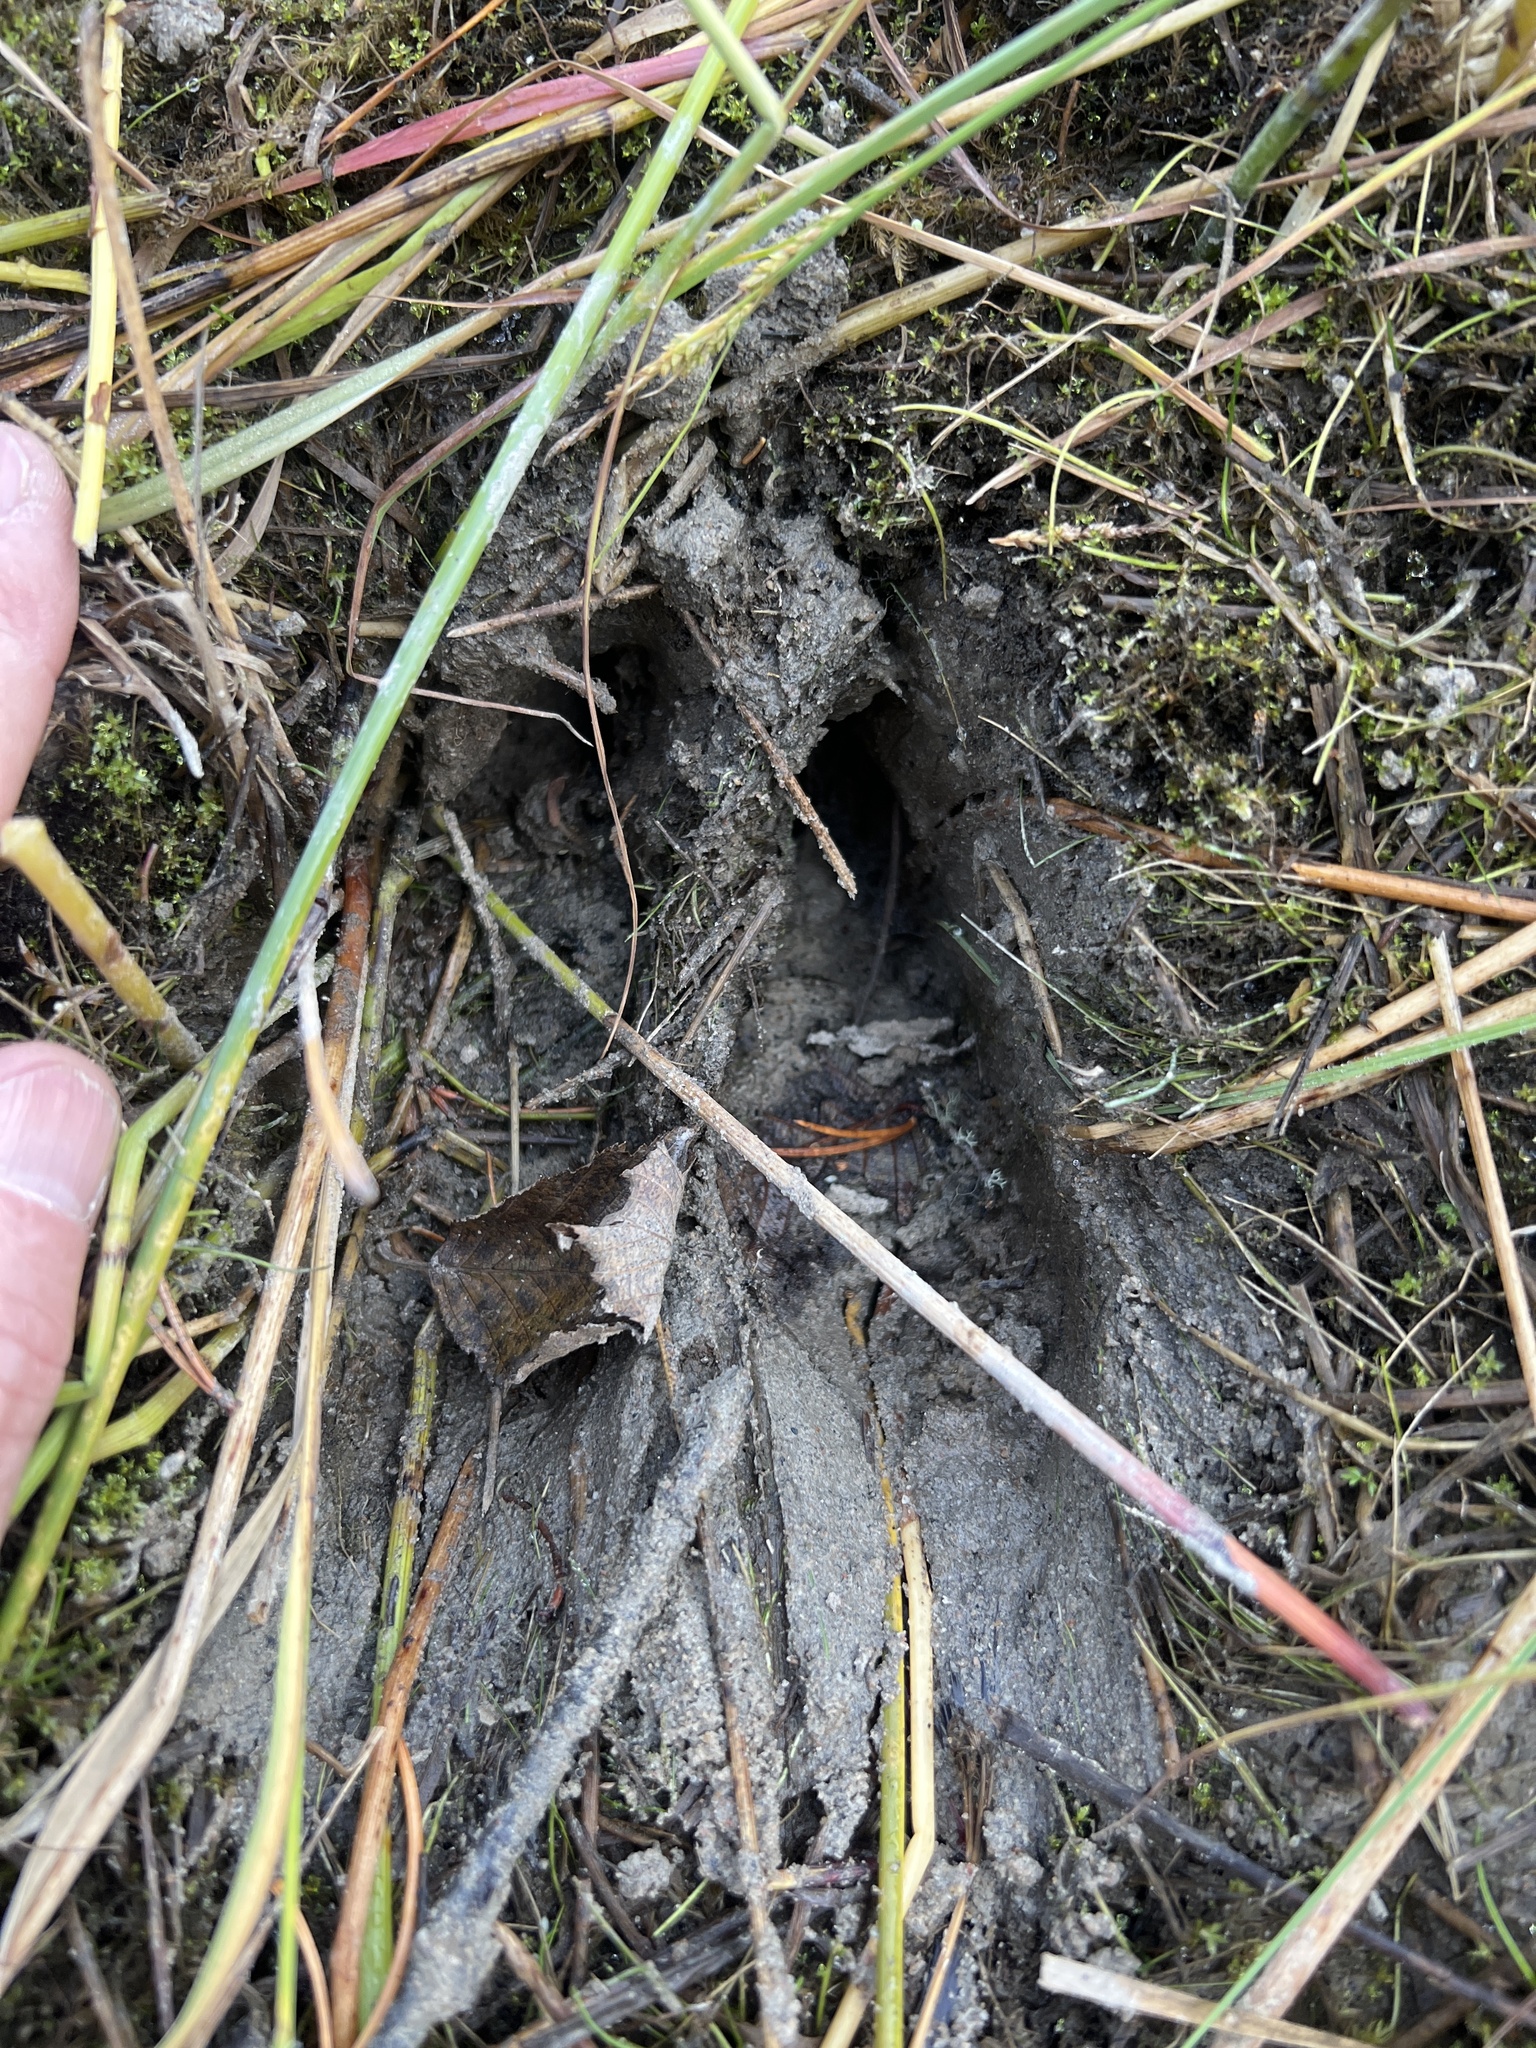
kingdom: Animalia
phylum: Chordata
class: Mammalia
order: Artiodactyla
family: Cervidae
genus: Alces
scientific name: Alces alces
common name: Moose
